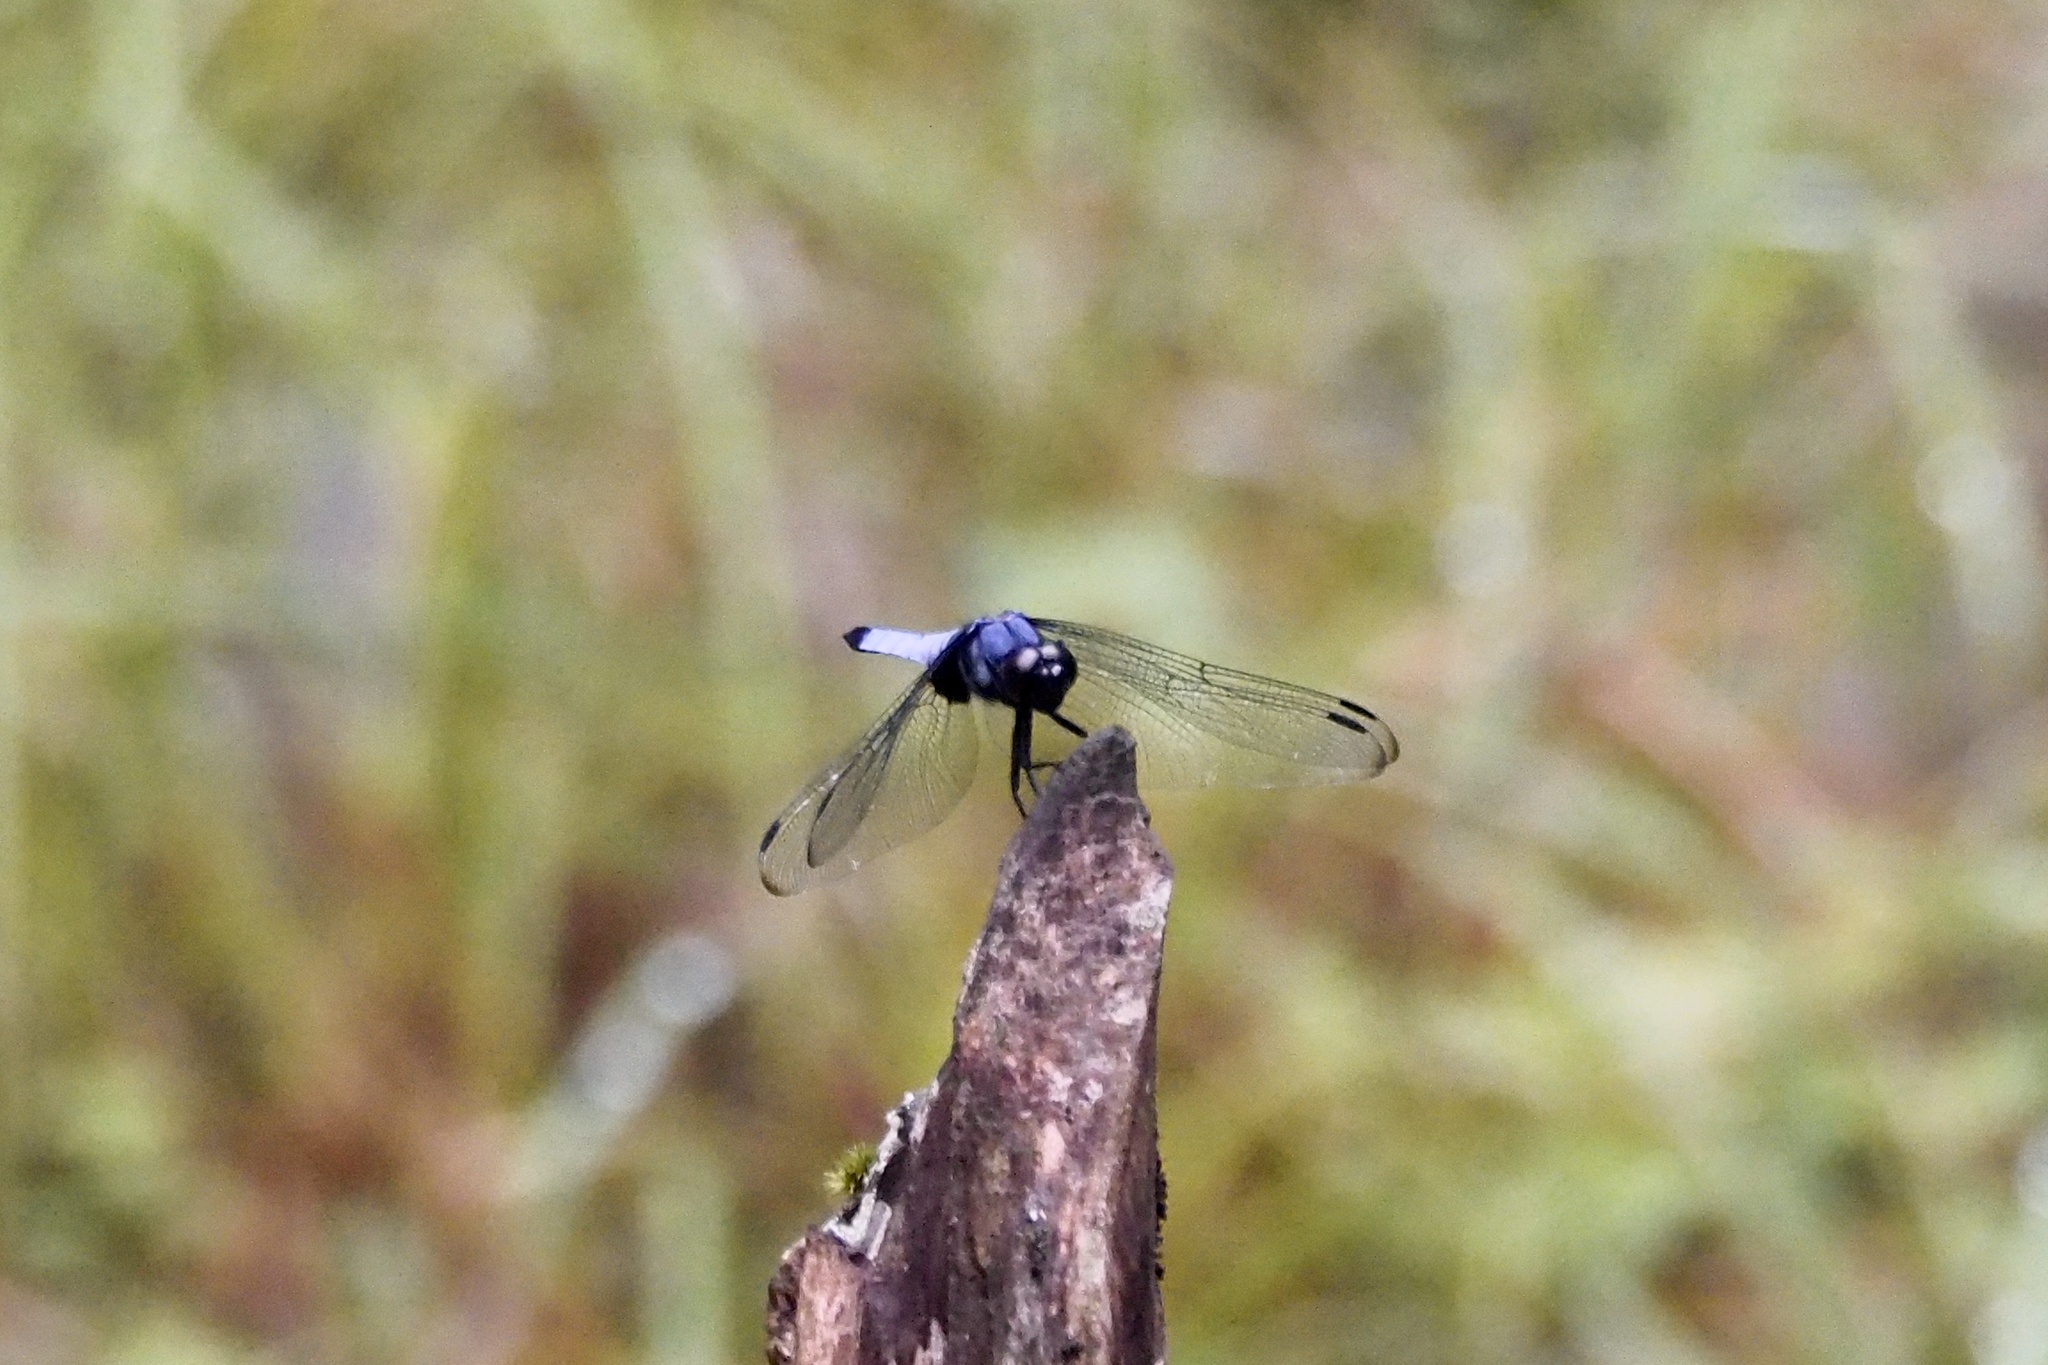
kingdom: Animalia
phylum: Arthropoda
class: Insecta
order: Odonata
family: Libellulidae
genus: Orthetrum
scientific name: Orthetrum melania
